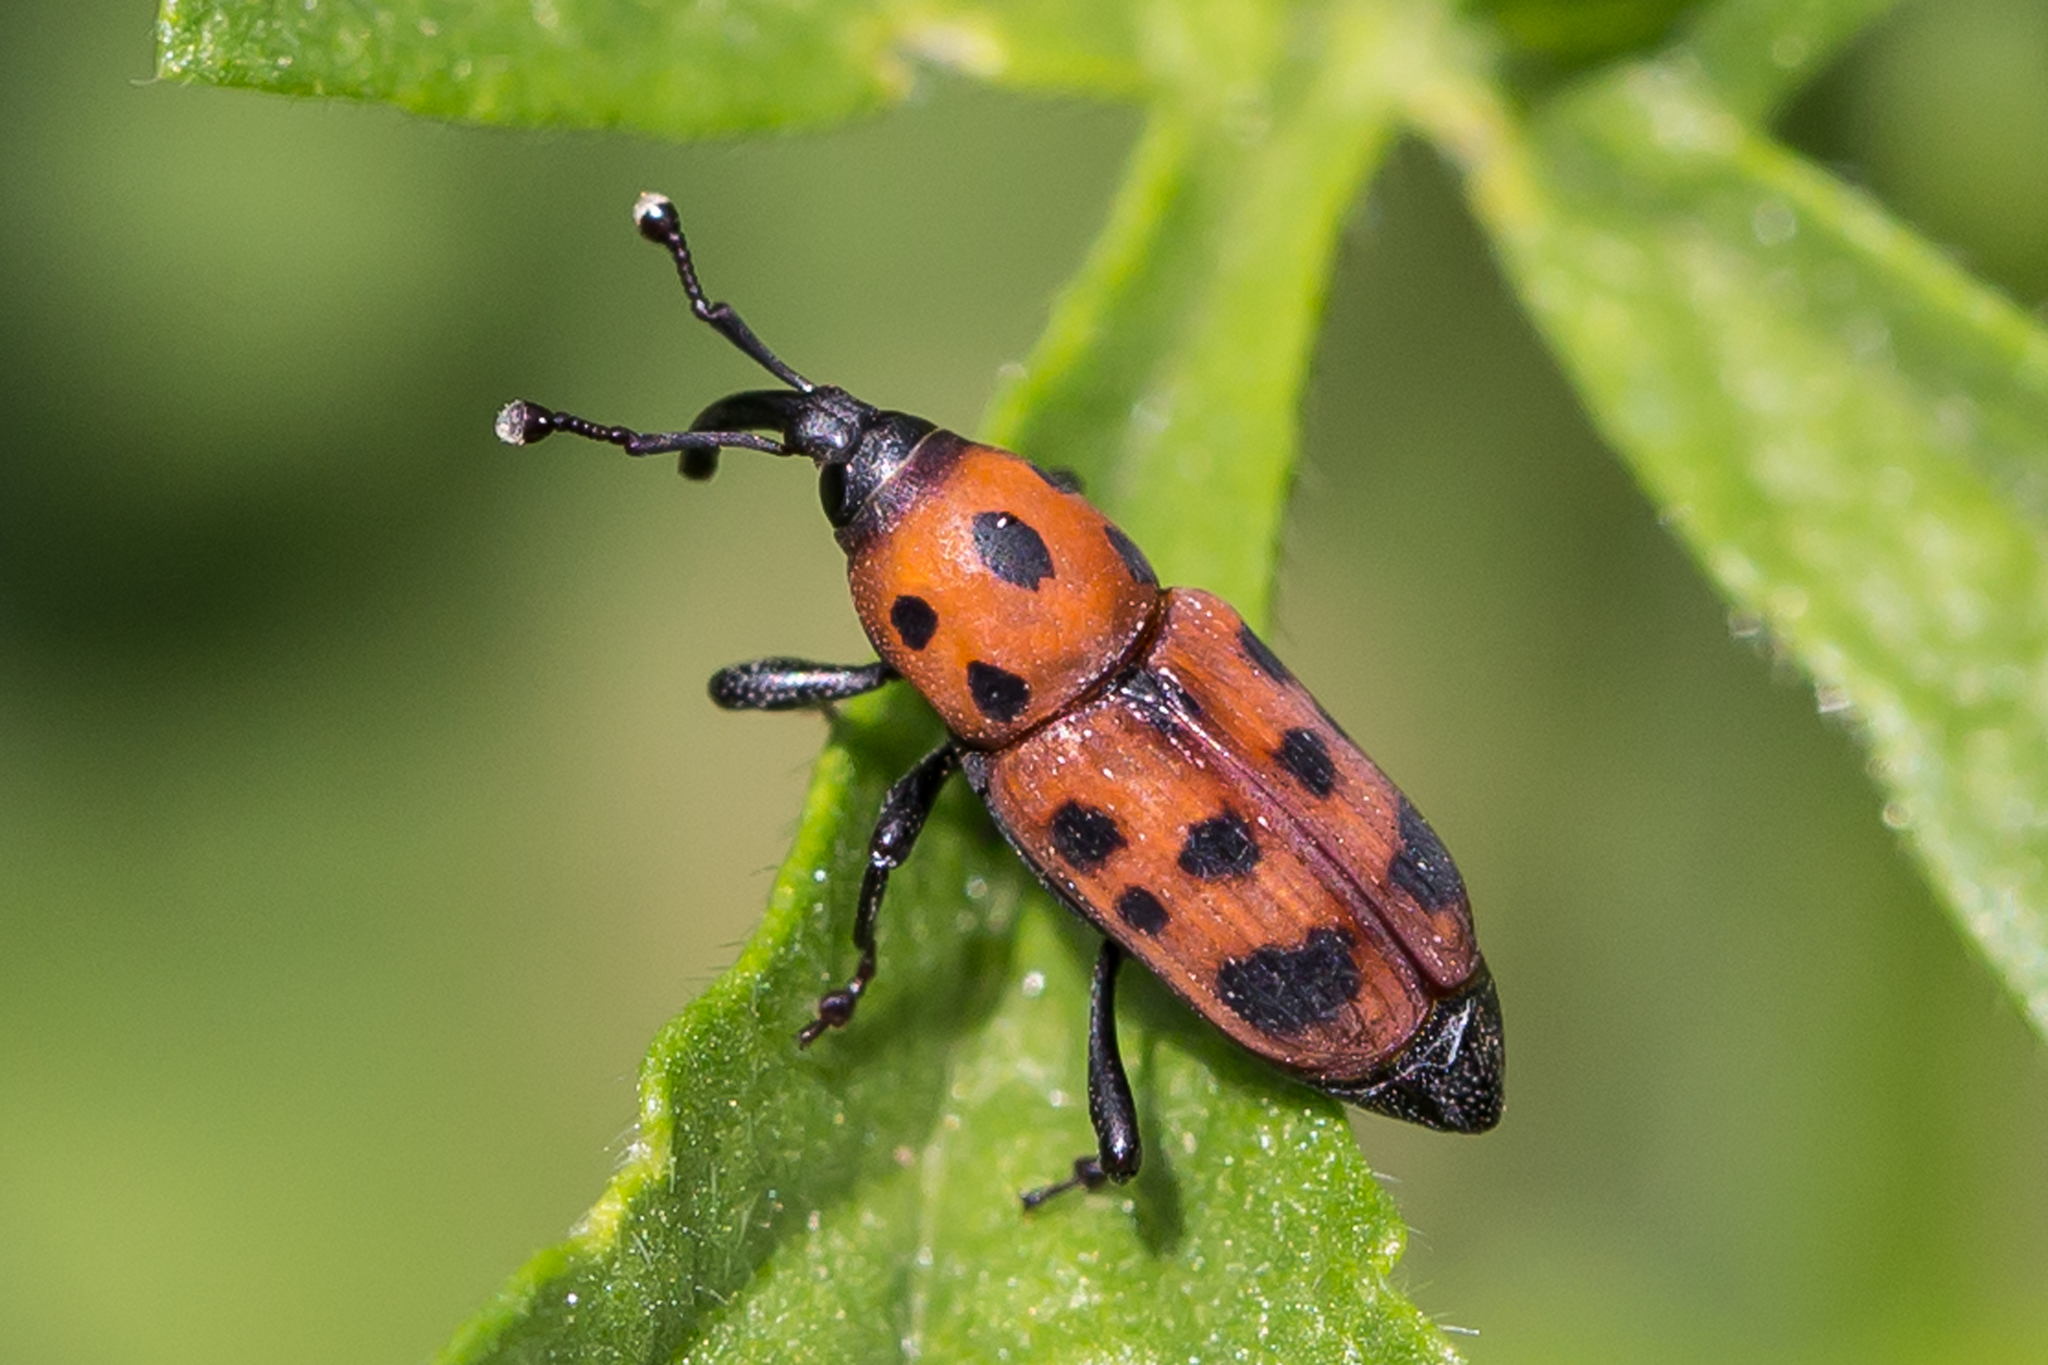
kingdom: Animalia
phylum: Arthropoda
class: Insecta
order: Coleoptera
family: Dryophthoridae
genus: Rhodobaenus
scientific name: Rhodobaenus tredecimpunctatus
